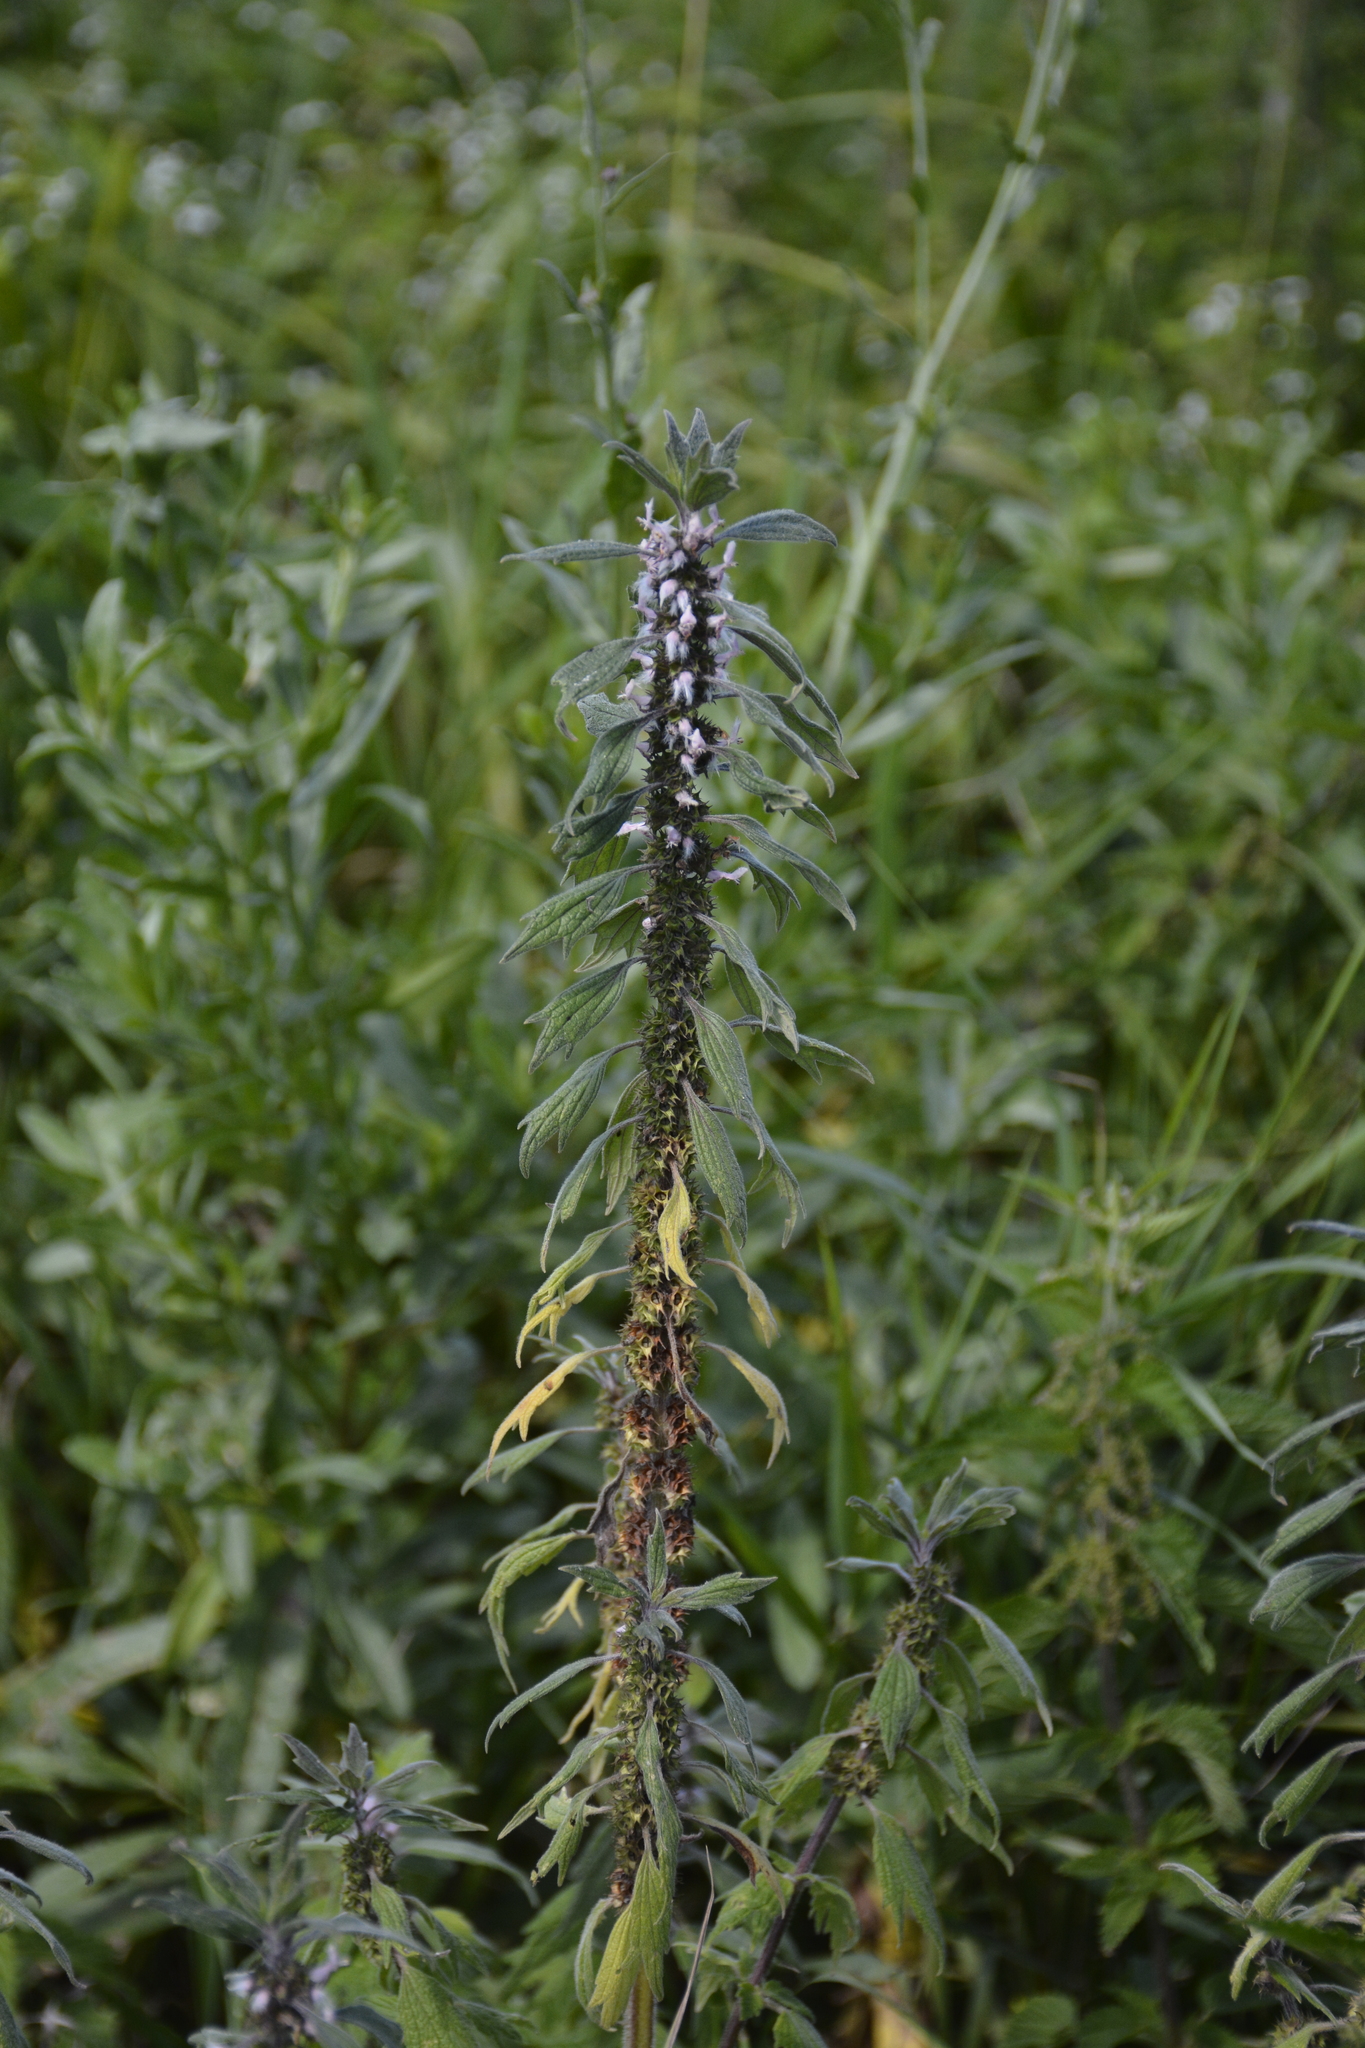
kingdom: Plantae
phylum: Tracheophyta
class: Magnoliopsida
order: Lamiales
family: Lamiaceae
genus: Leonurus
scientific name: Leonurus quinquelobatus
